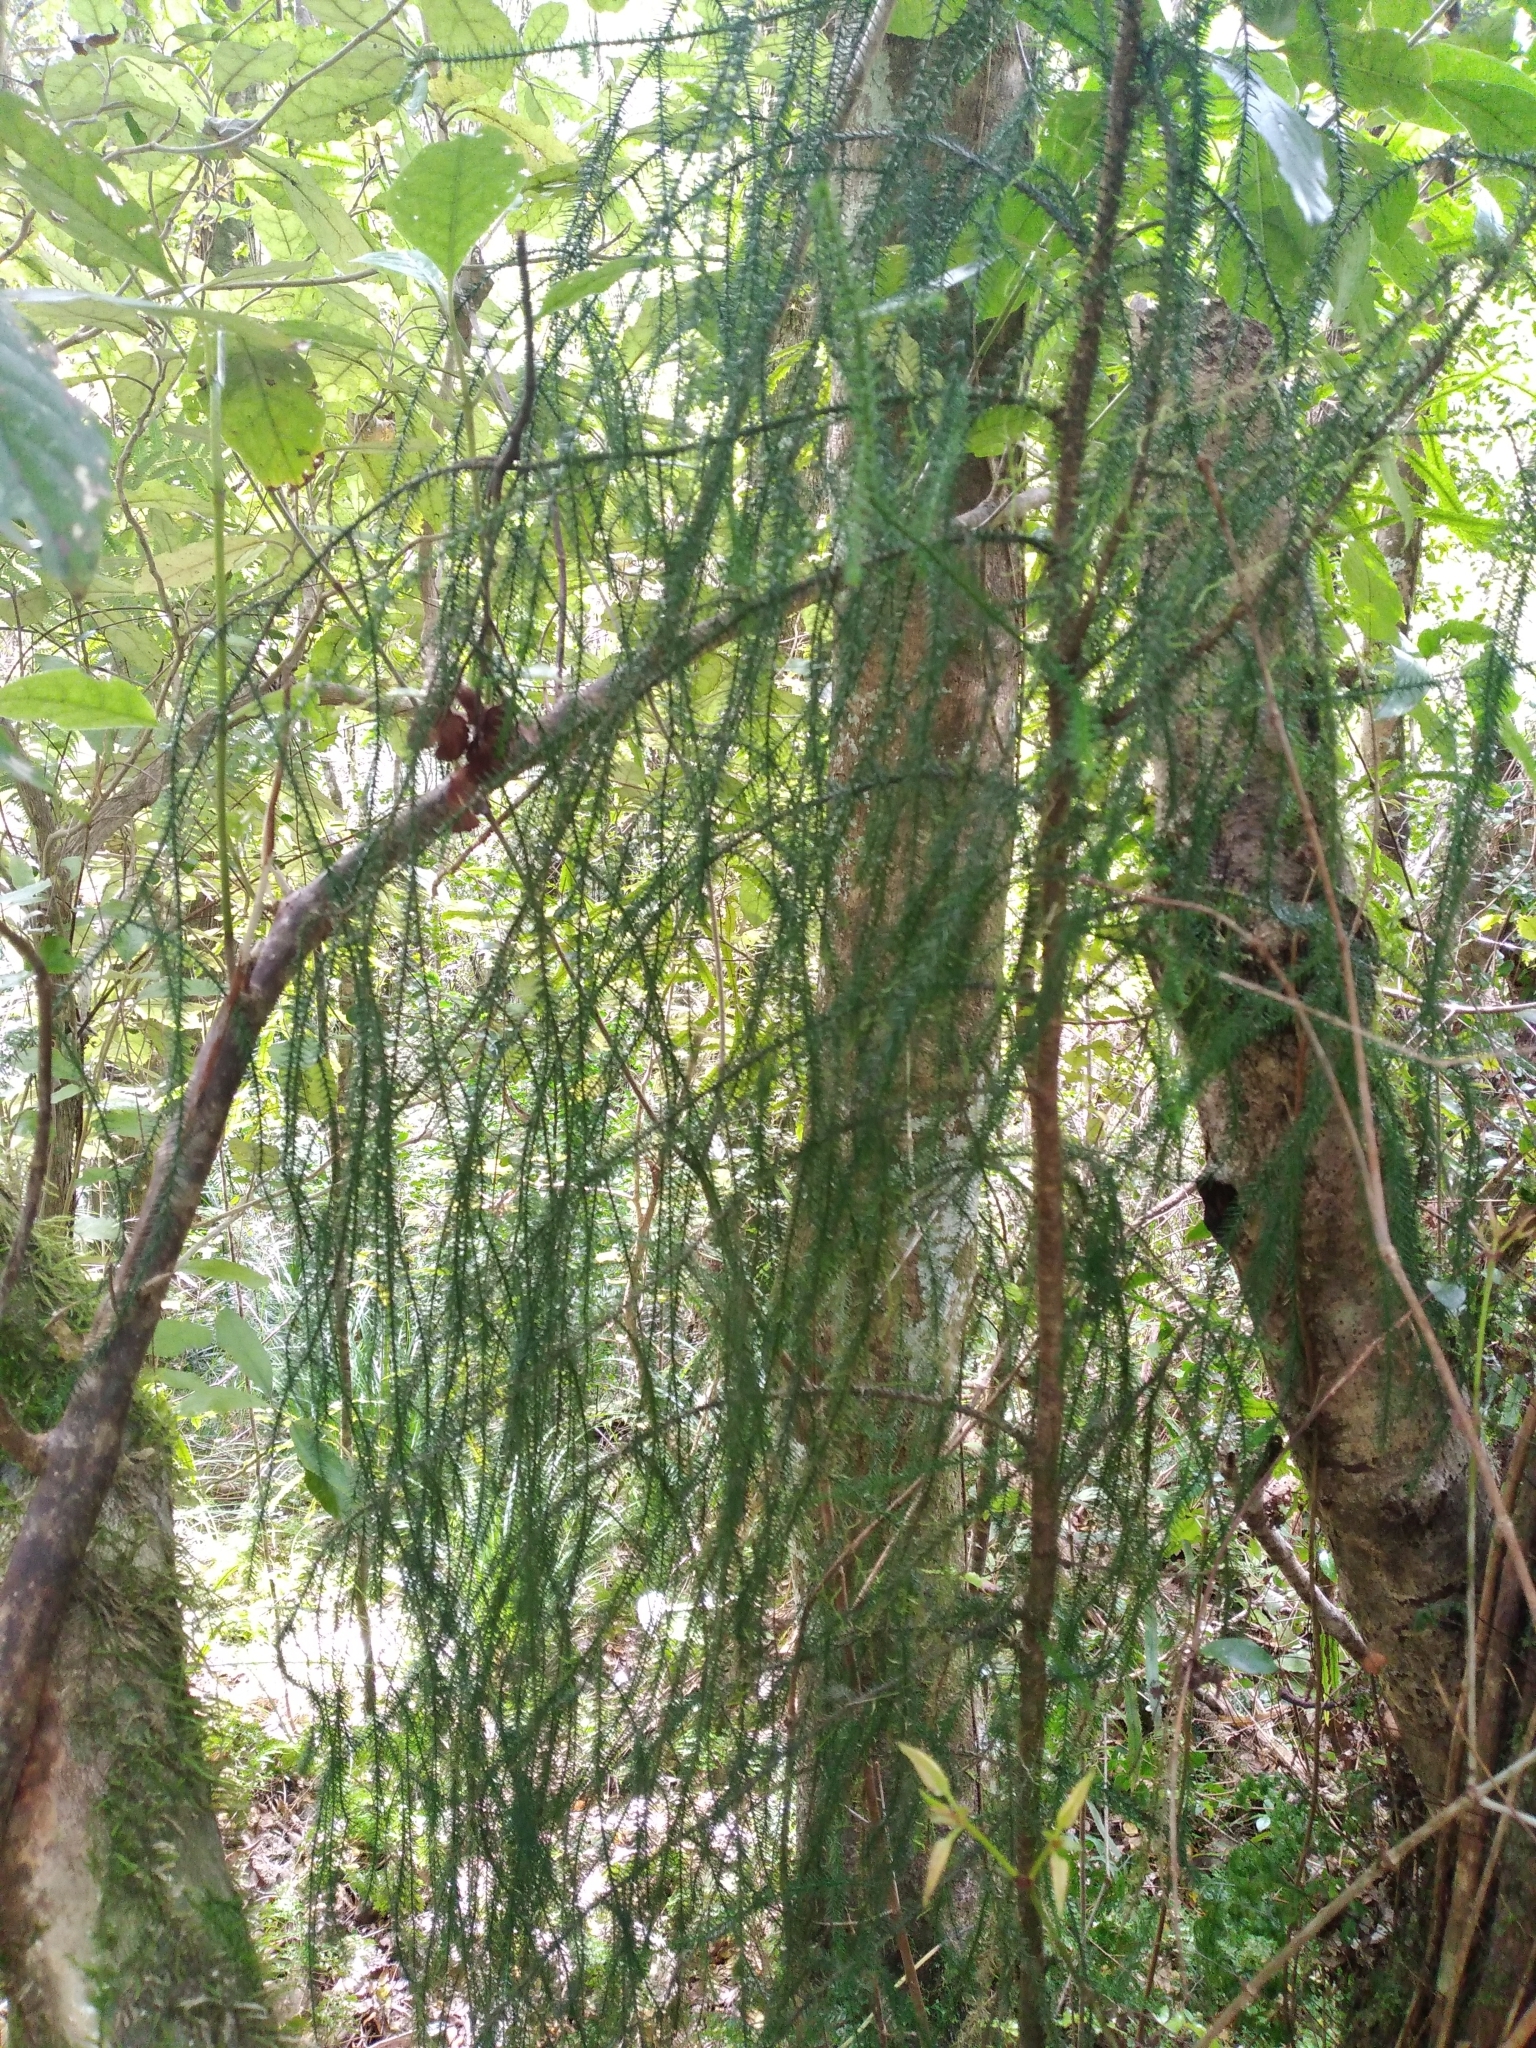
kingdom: Plantae
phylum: Tracheophyta
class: Pinopsida
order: Pinales
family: Podocarpaceae
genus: Dacrydium
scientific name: Dacrydium cupressinum
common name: Red pine
